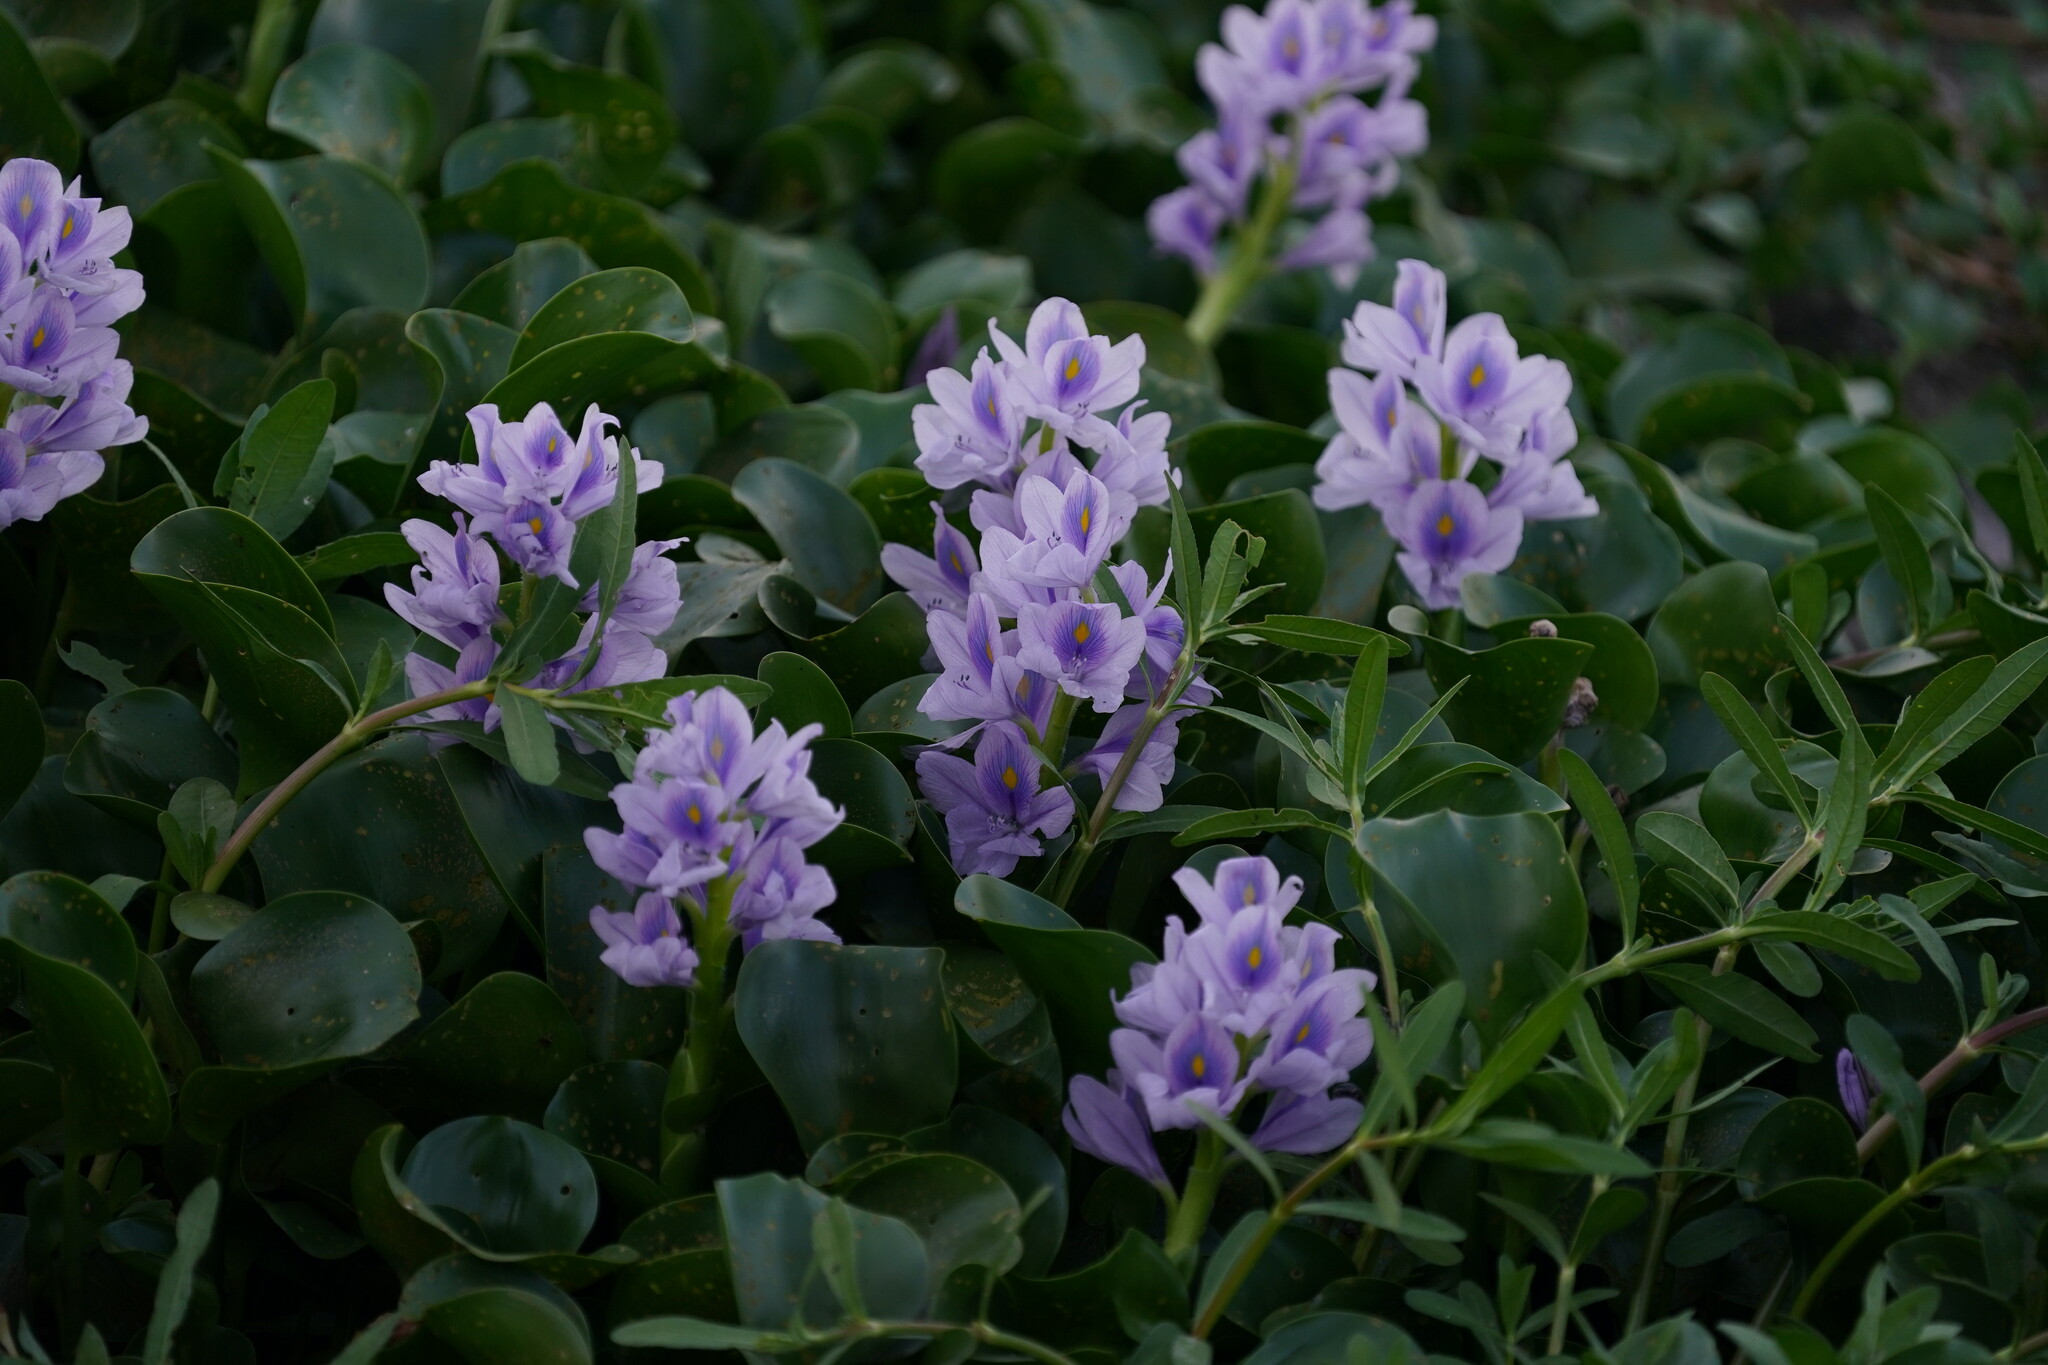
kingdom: Plantae
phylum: Tracheophyta
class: Liliopsida
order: Commelinales
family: Pontederiaceae
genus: Pontederia
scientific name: Pontederia crassipes
